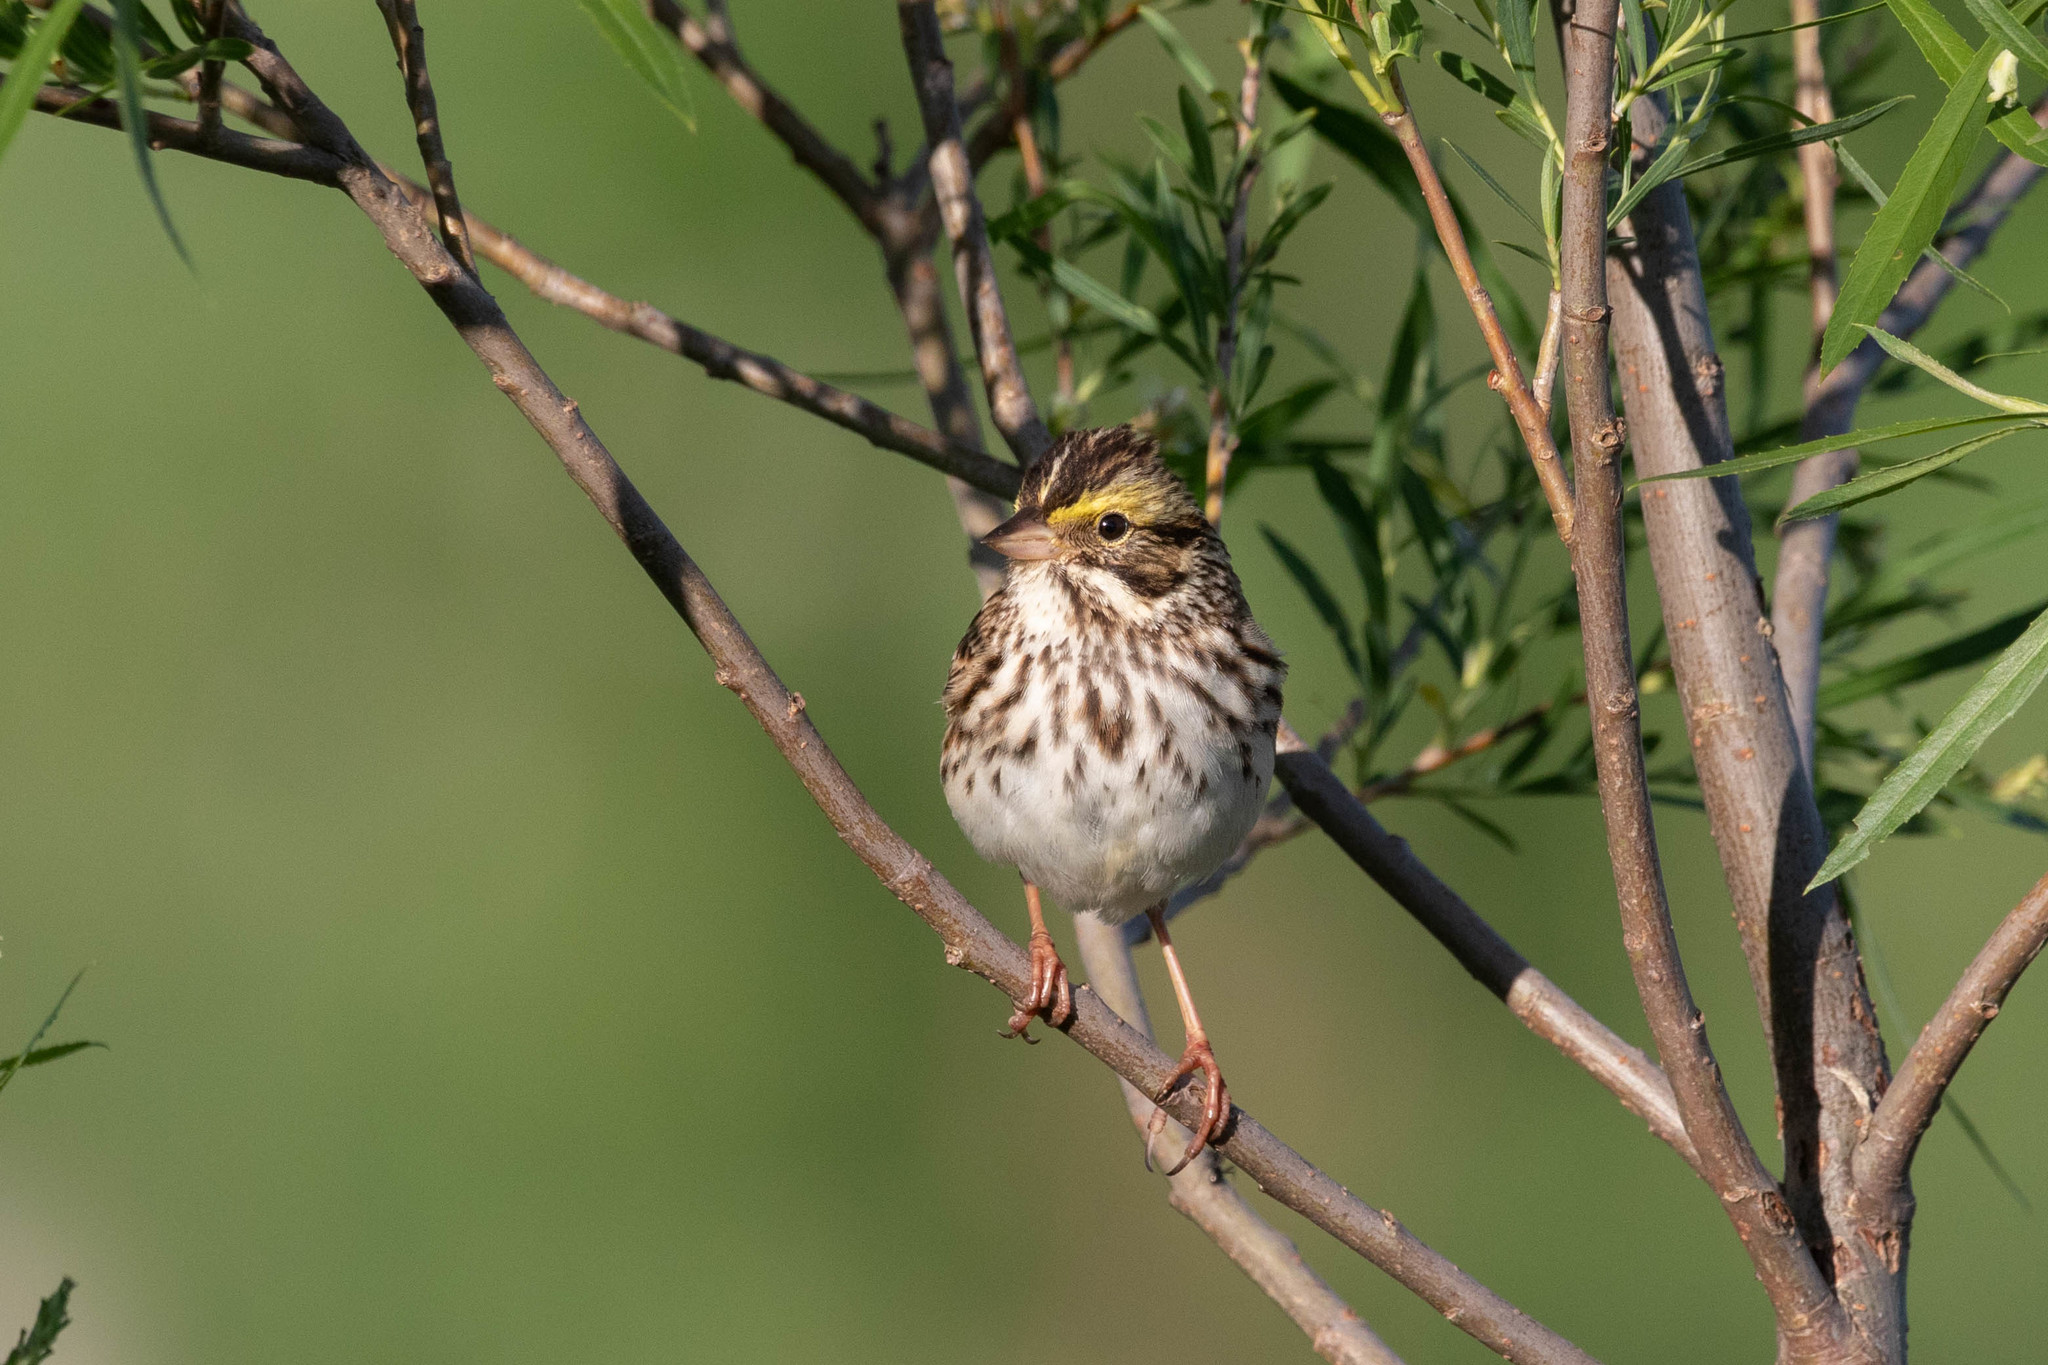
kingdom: Animalia
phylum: Chordata
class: Aves
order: Passeriformes
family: Passerellidae
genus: Passerculus
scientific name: Passerculus sandwichensis
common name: Savannah sparrow
